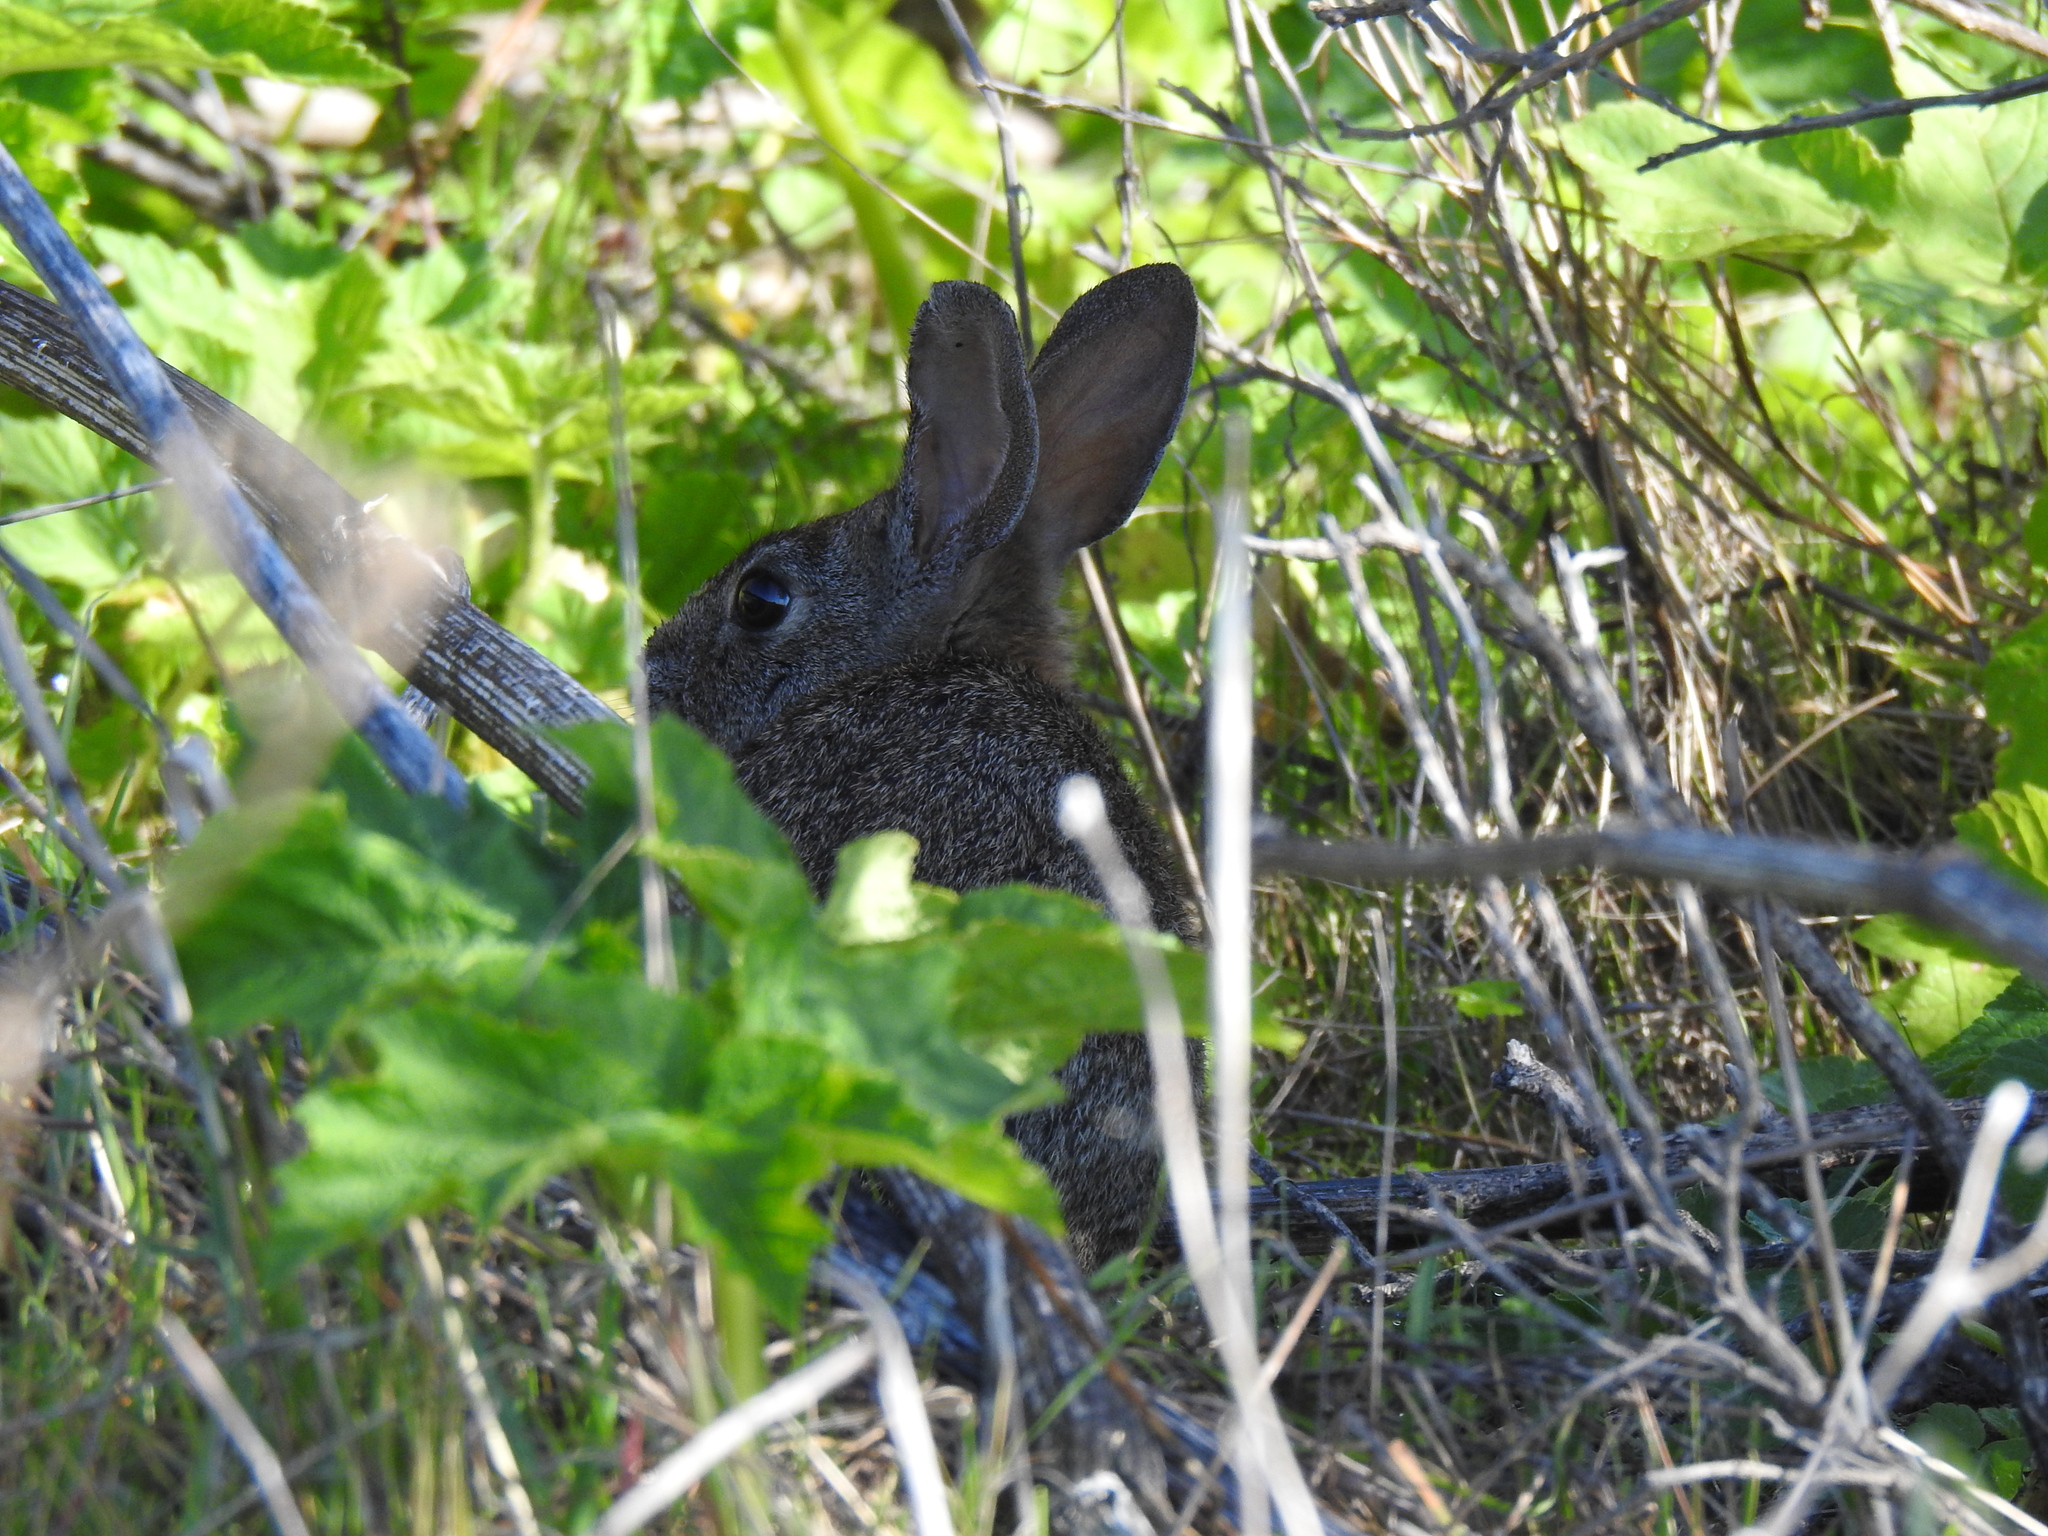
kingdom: Animalia
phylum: Chordata
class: Mammalia
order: Lagomorpha
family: Leporidae
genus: Sylvilagus
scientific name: Sylvilagus bachmani
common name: Brush rabbit
